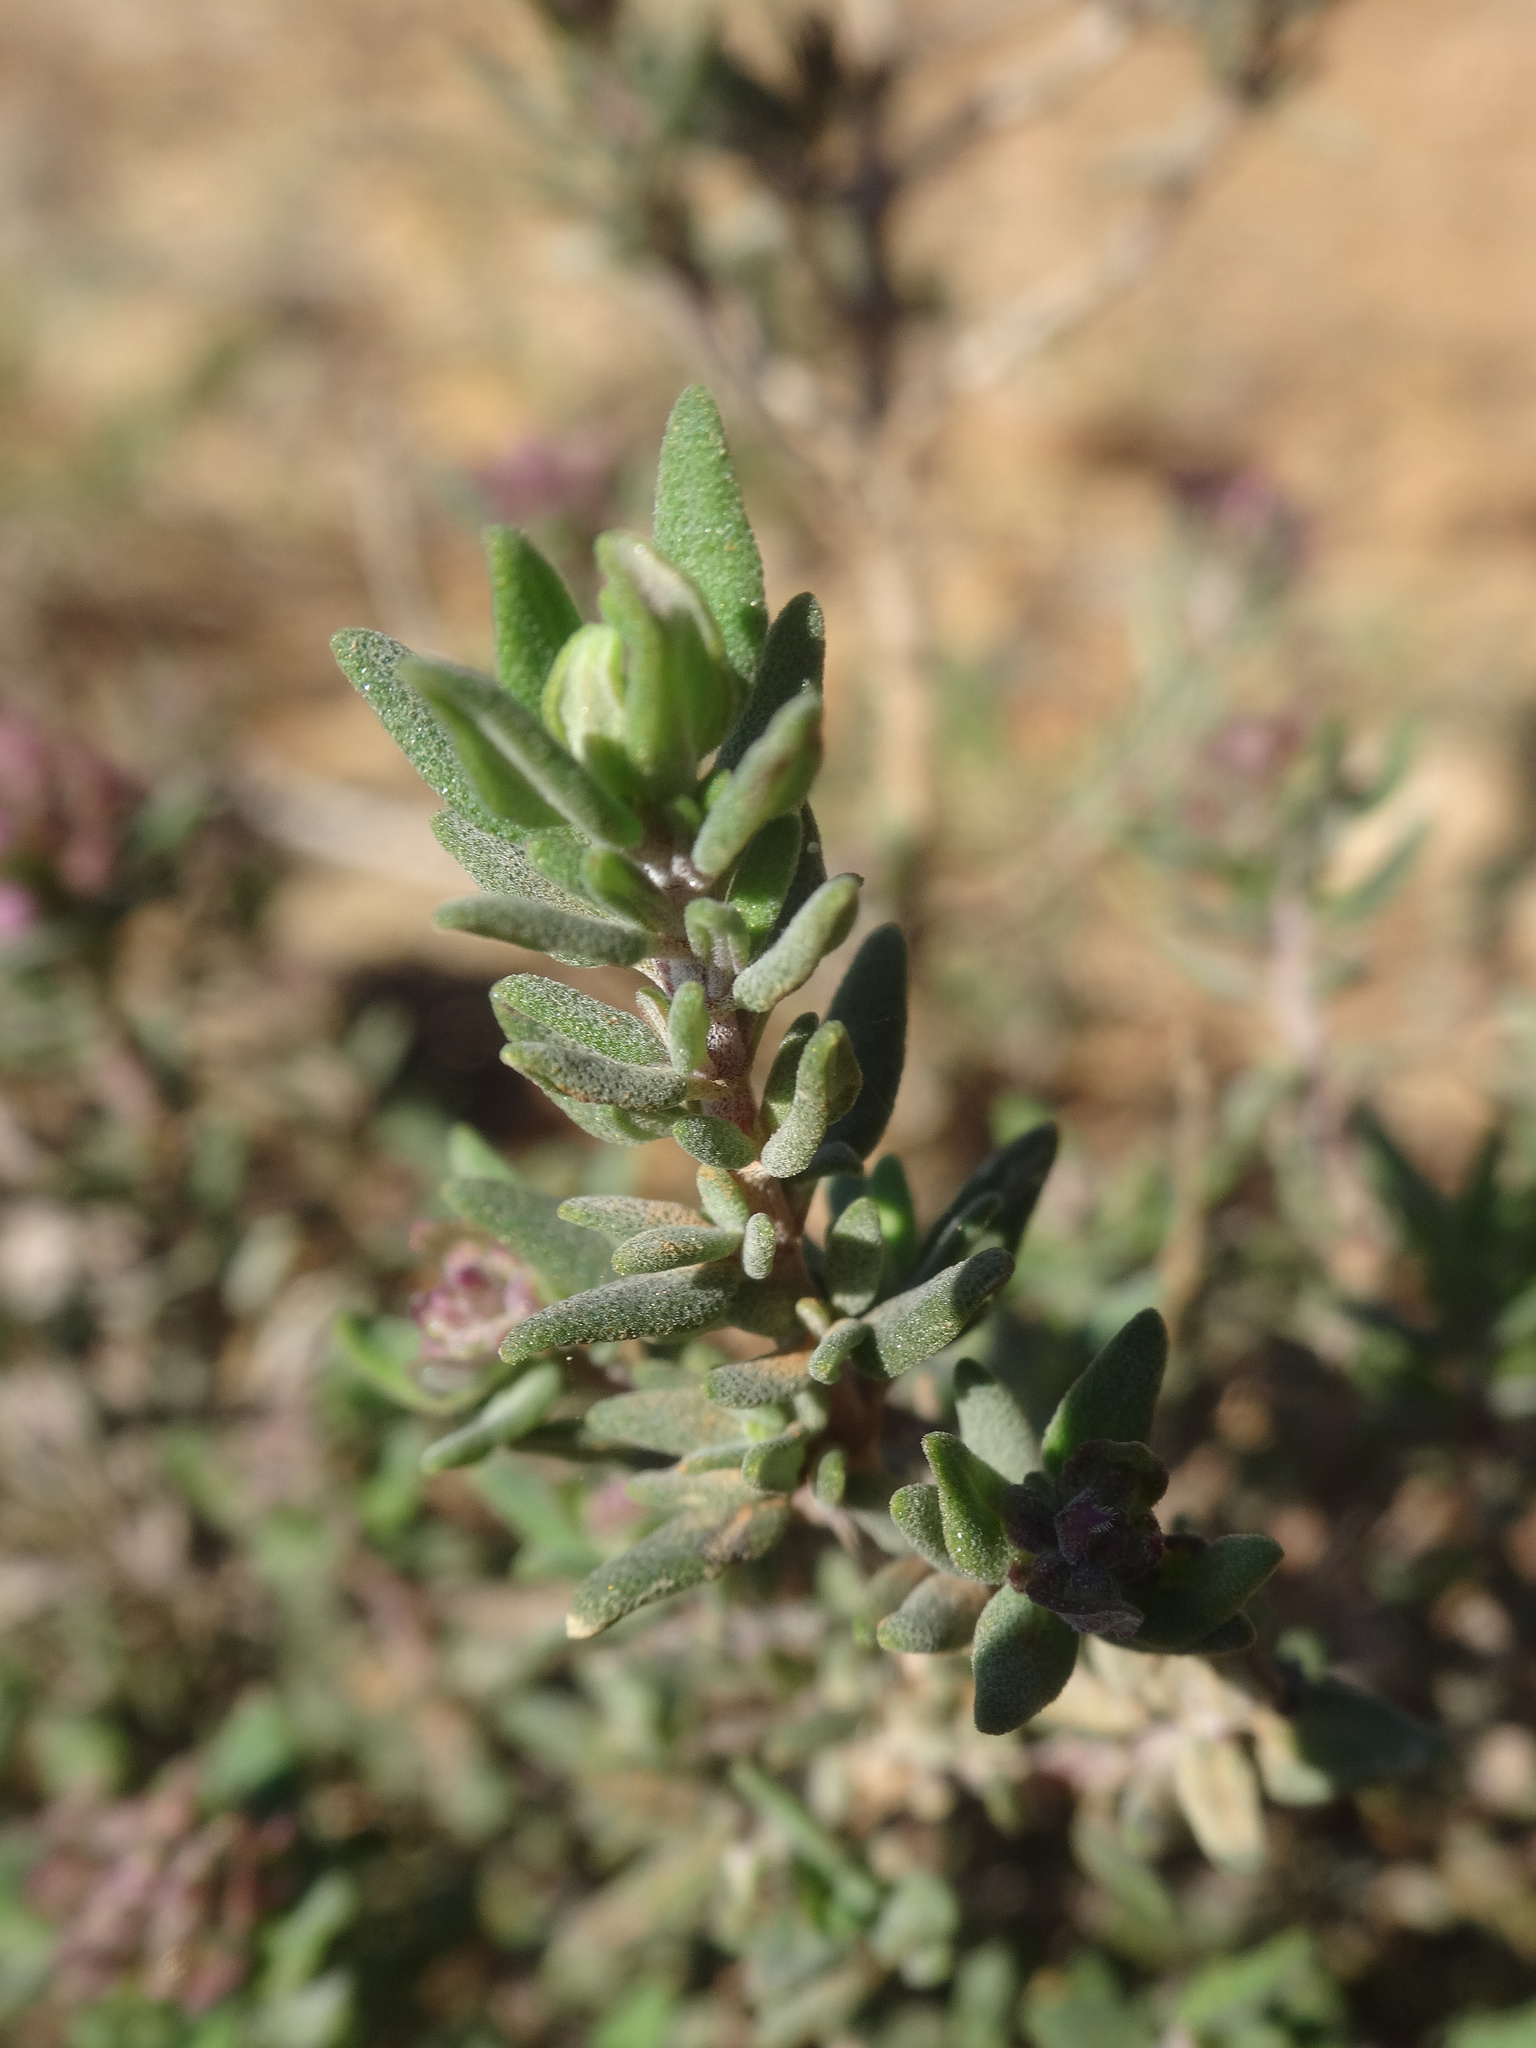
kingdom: Plantae
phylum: Tracheophyta
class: Magnoliopsida
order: Lamiales
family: Lamiaceae
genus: Thymus
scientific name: Thymus vulgaris
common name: Garden thyme
